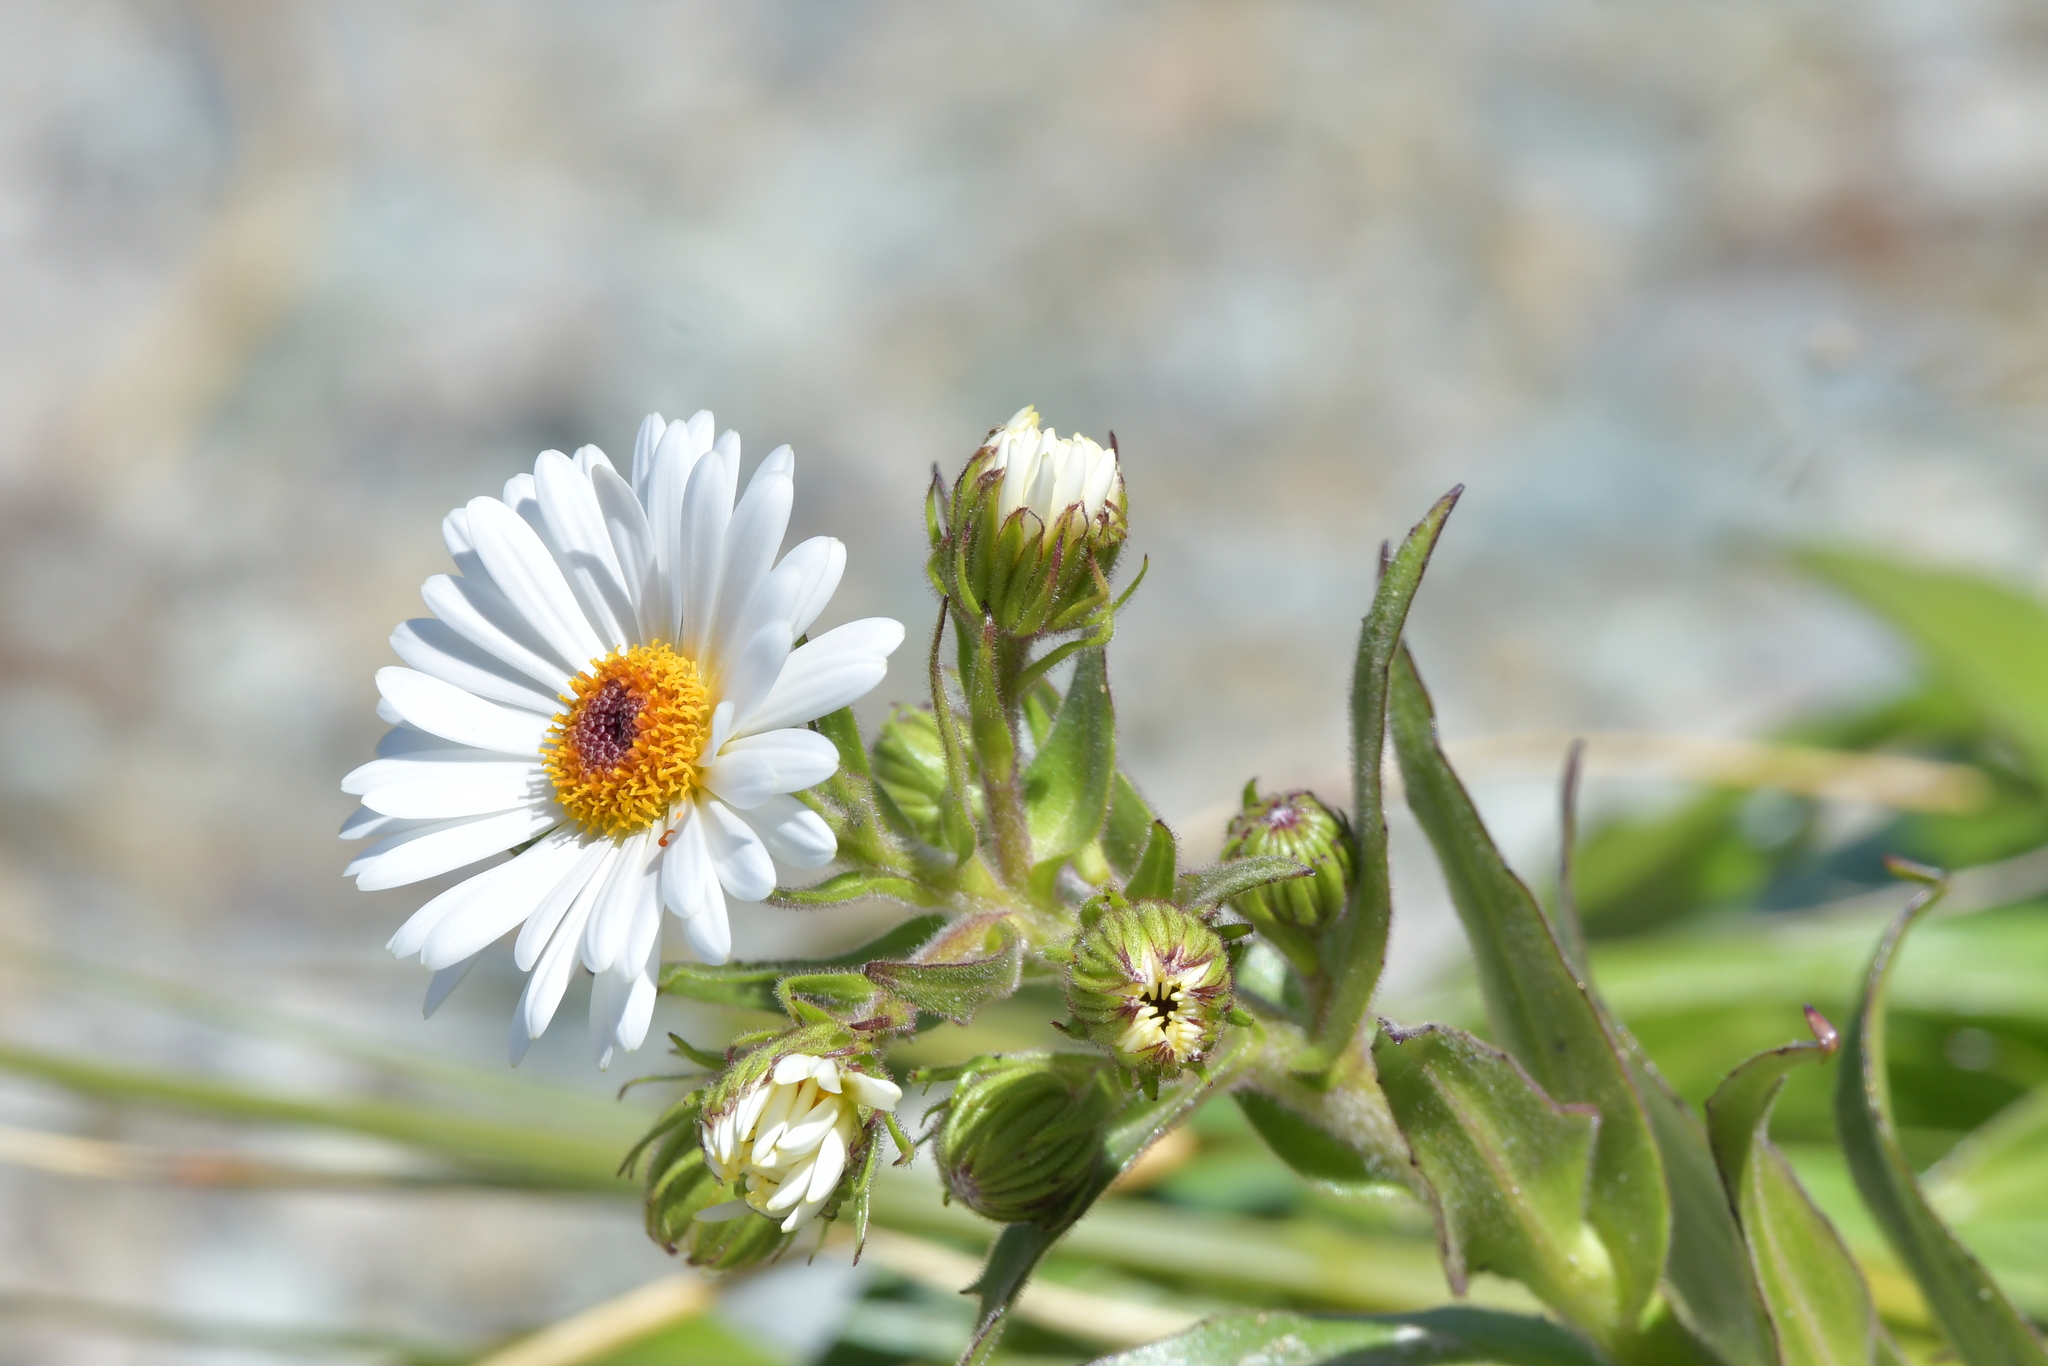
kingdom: Plantae
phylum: Tracheophyta
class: Magnoliopsida
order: Asterales
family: Asteraceae
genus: Dolichoglottis
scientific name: Dolichoglottis scorzoneroides
